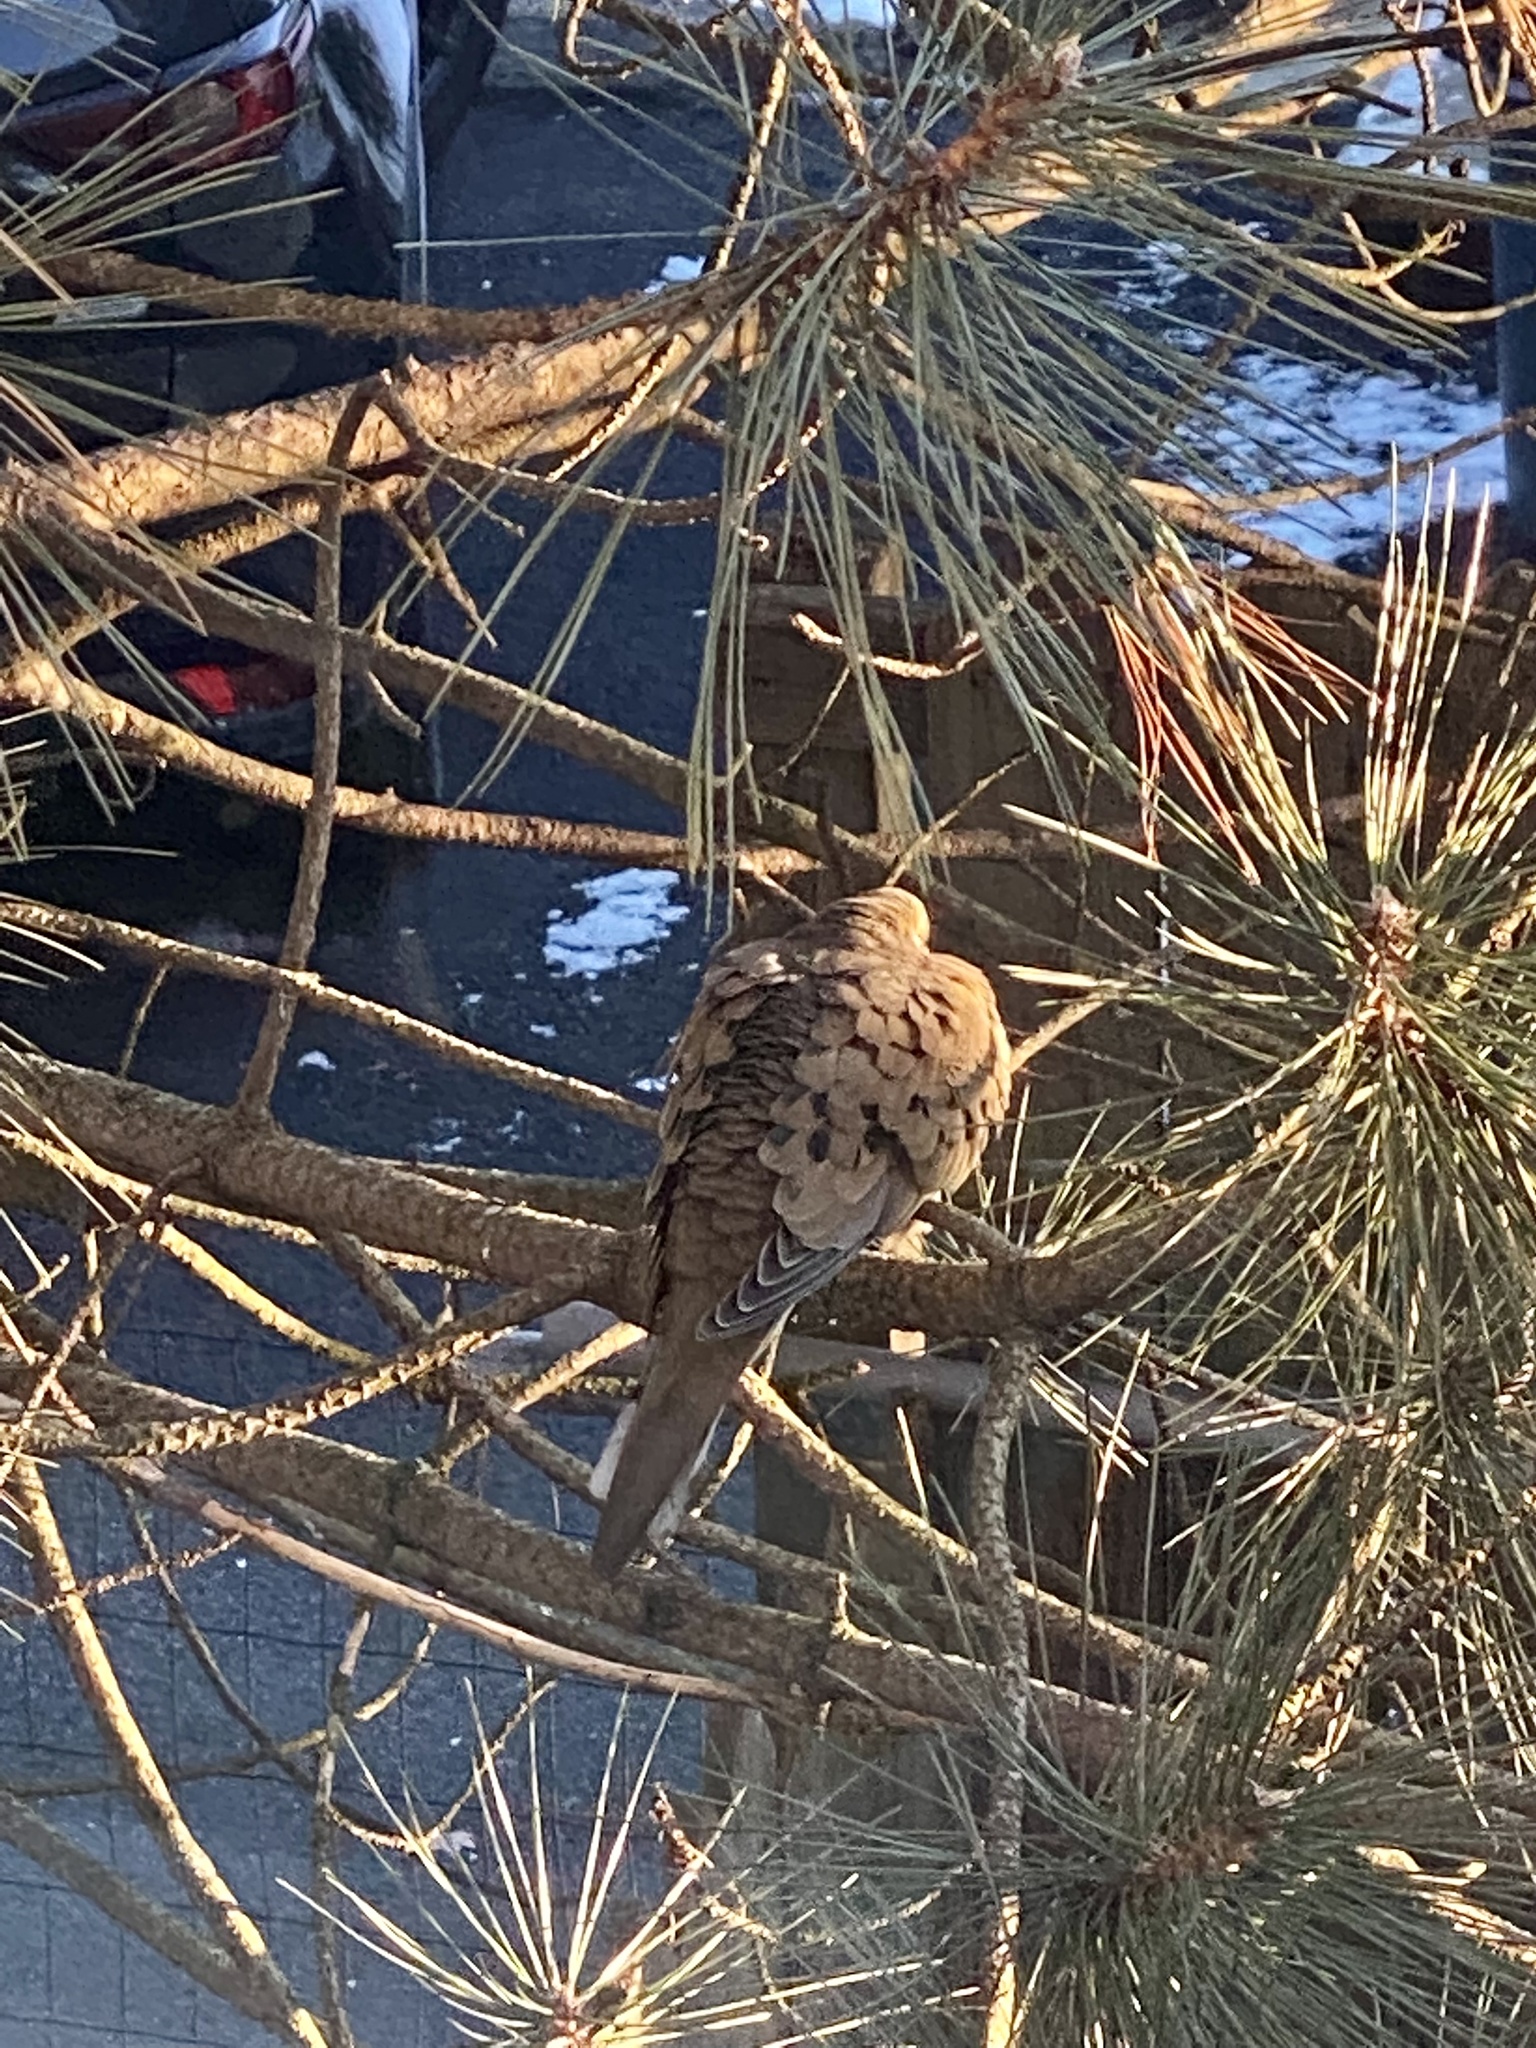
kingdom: Animalia
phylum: Chordata
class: Aves
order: Columbiformes
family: Columbidae
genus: Zenaida
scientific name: Zenaida macroura
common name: Mourning dove
